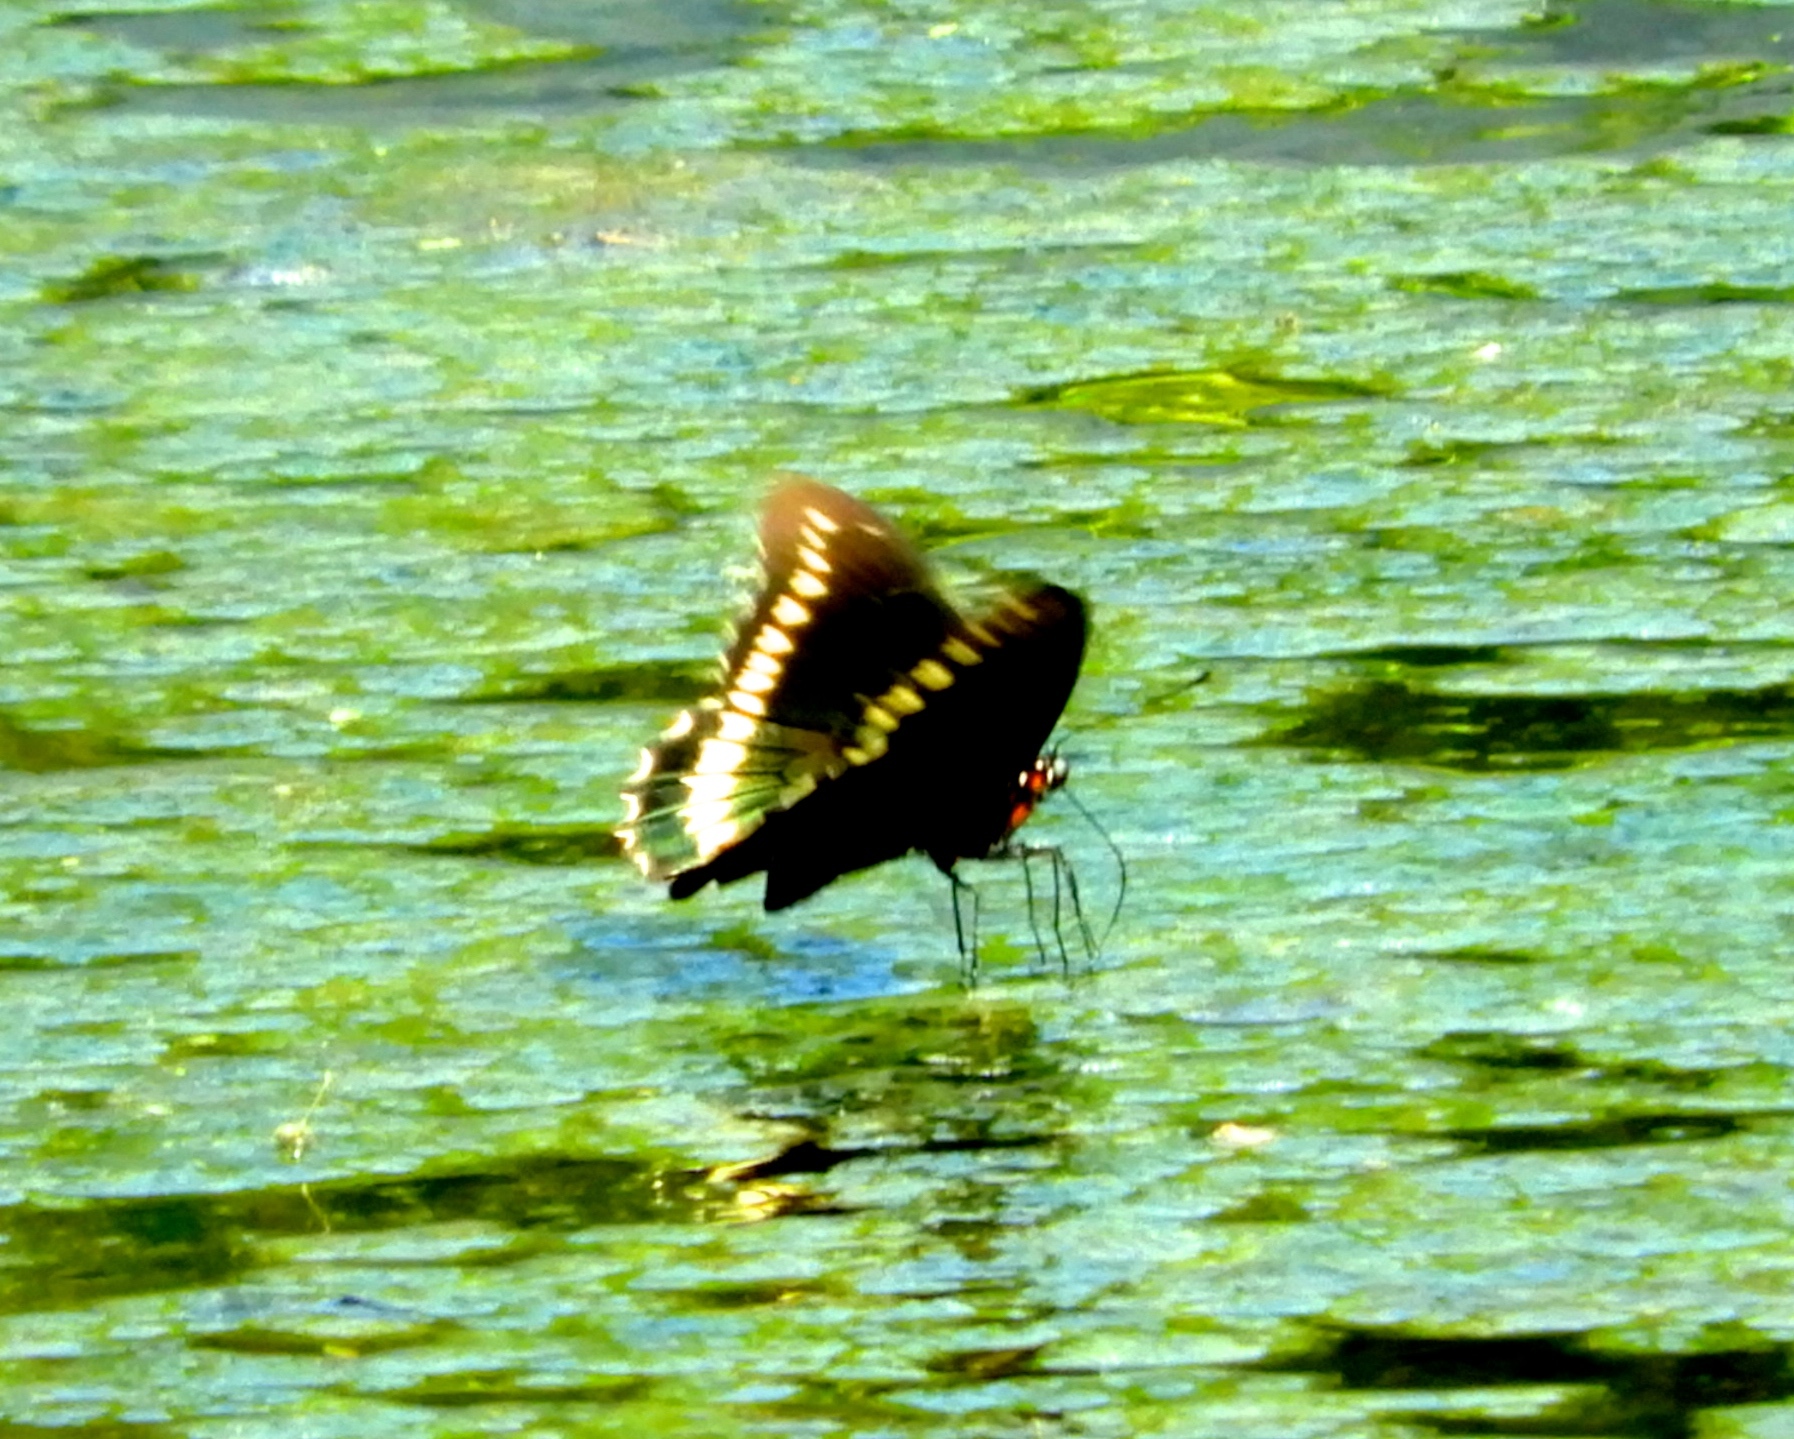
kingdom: Animalia
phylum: Arthropoda
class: Insecta
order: Lepidoptera
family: Papilionidae
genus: Battus
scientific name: Battus polydamas
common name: Polydamas swallowtail
